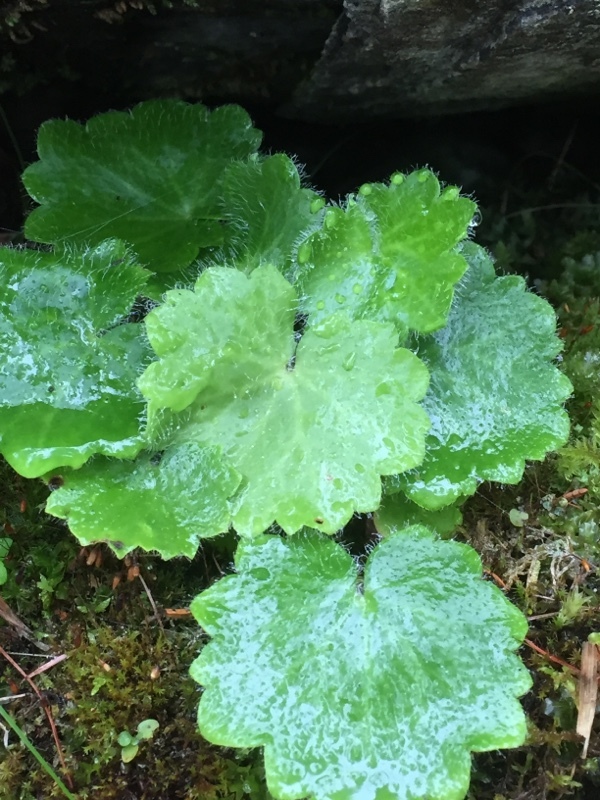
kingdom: Plantae
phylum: Tracheophyta
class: Magnoliopsida
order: Saxifragales
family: Saxifragaceae
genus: Saxifraga
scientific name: Saxifraga rotundifolia
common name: Round-leaved saxifrage
